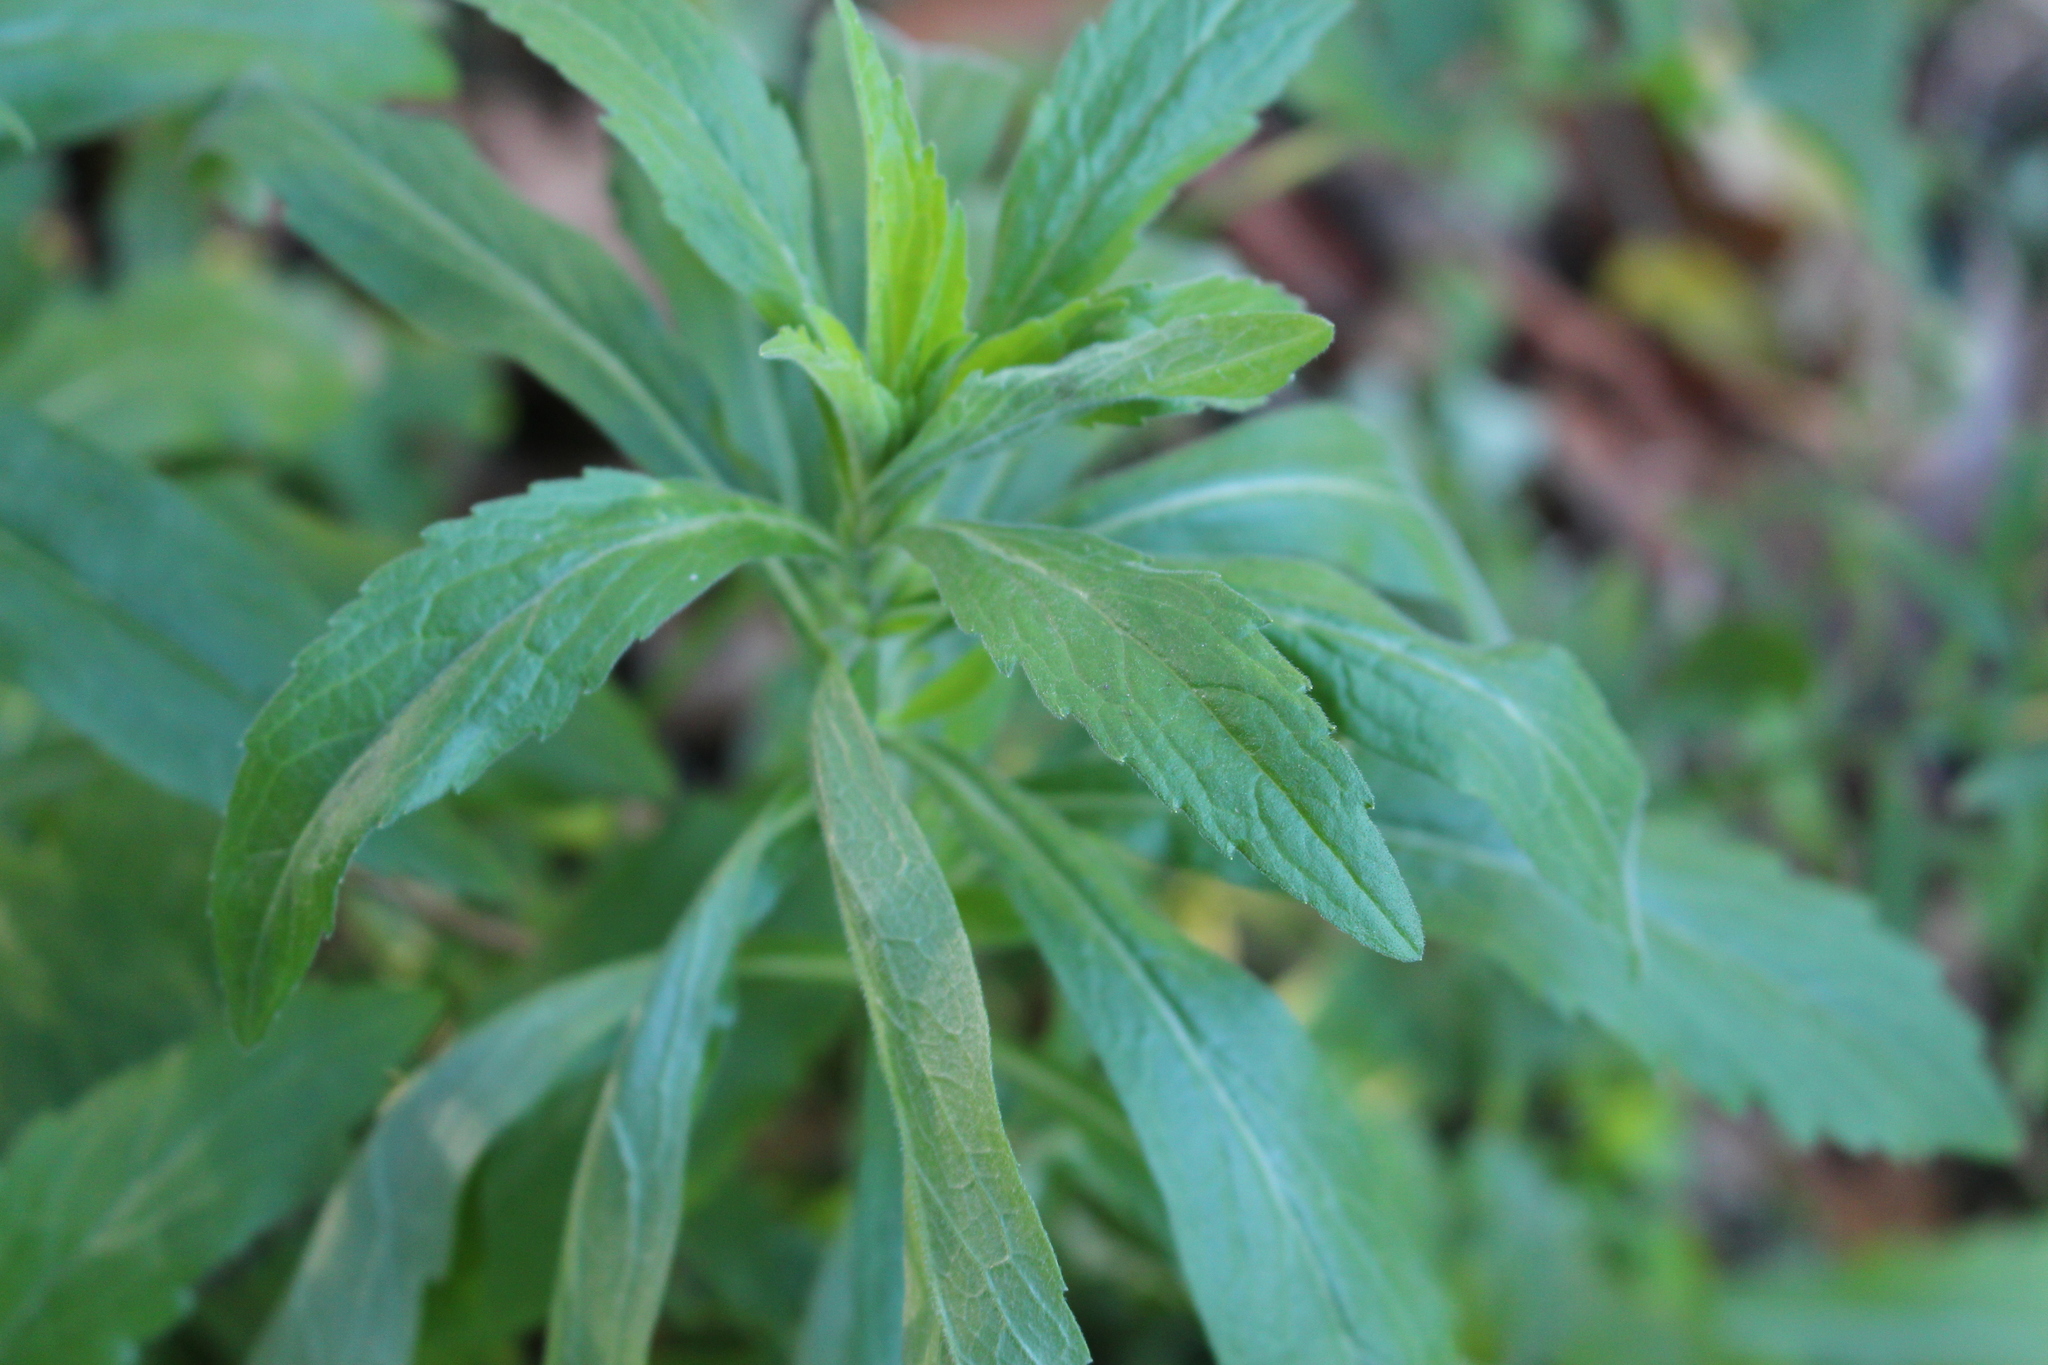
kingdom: Plantae
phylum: Tracheophyta
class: Magnoliopsida
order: Asterales
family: Asteraceae
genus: Erigeron
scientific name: Erigeron sumatrensis
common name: Daisy
